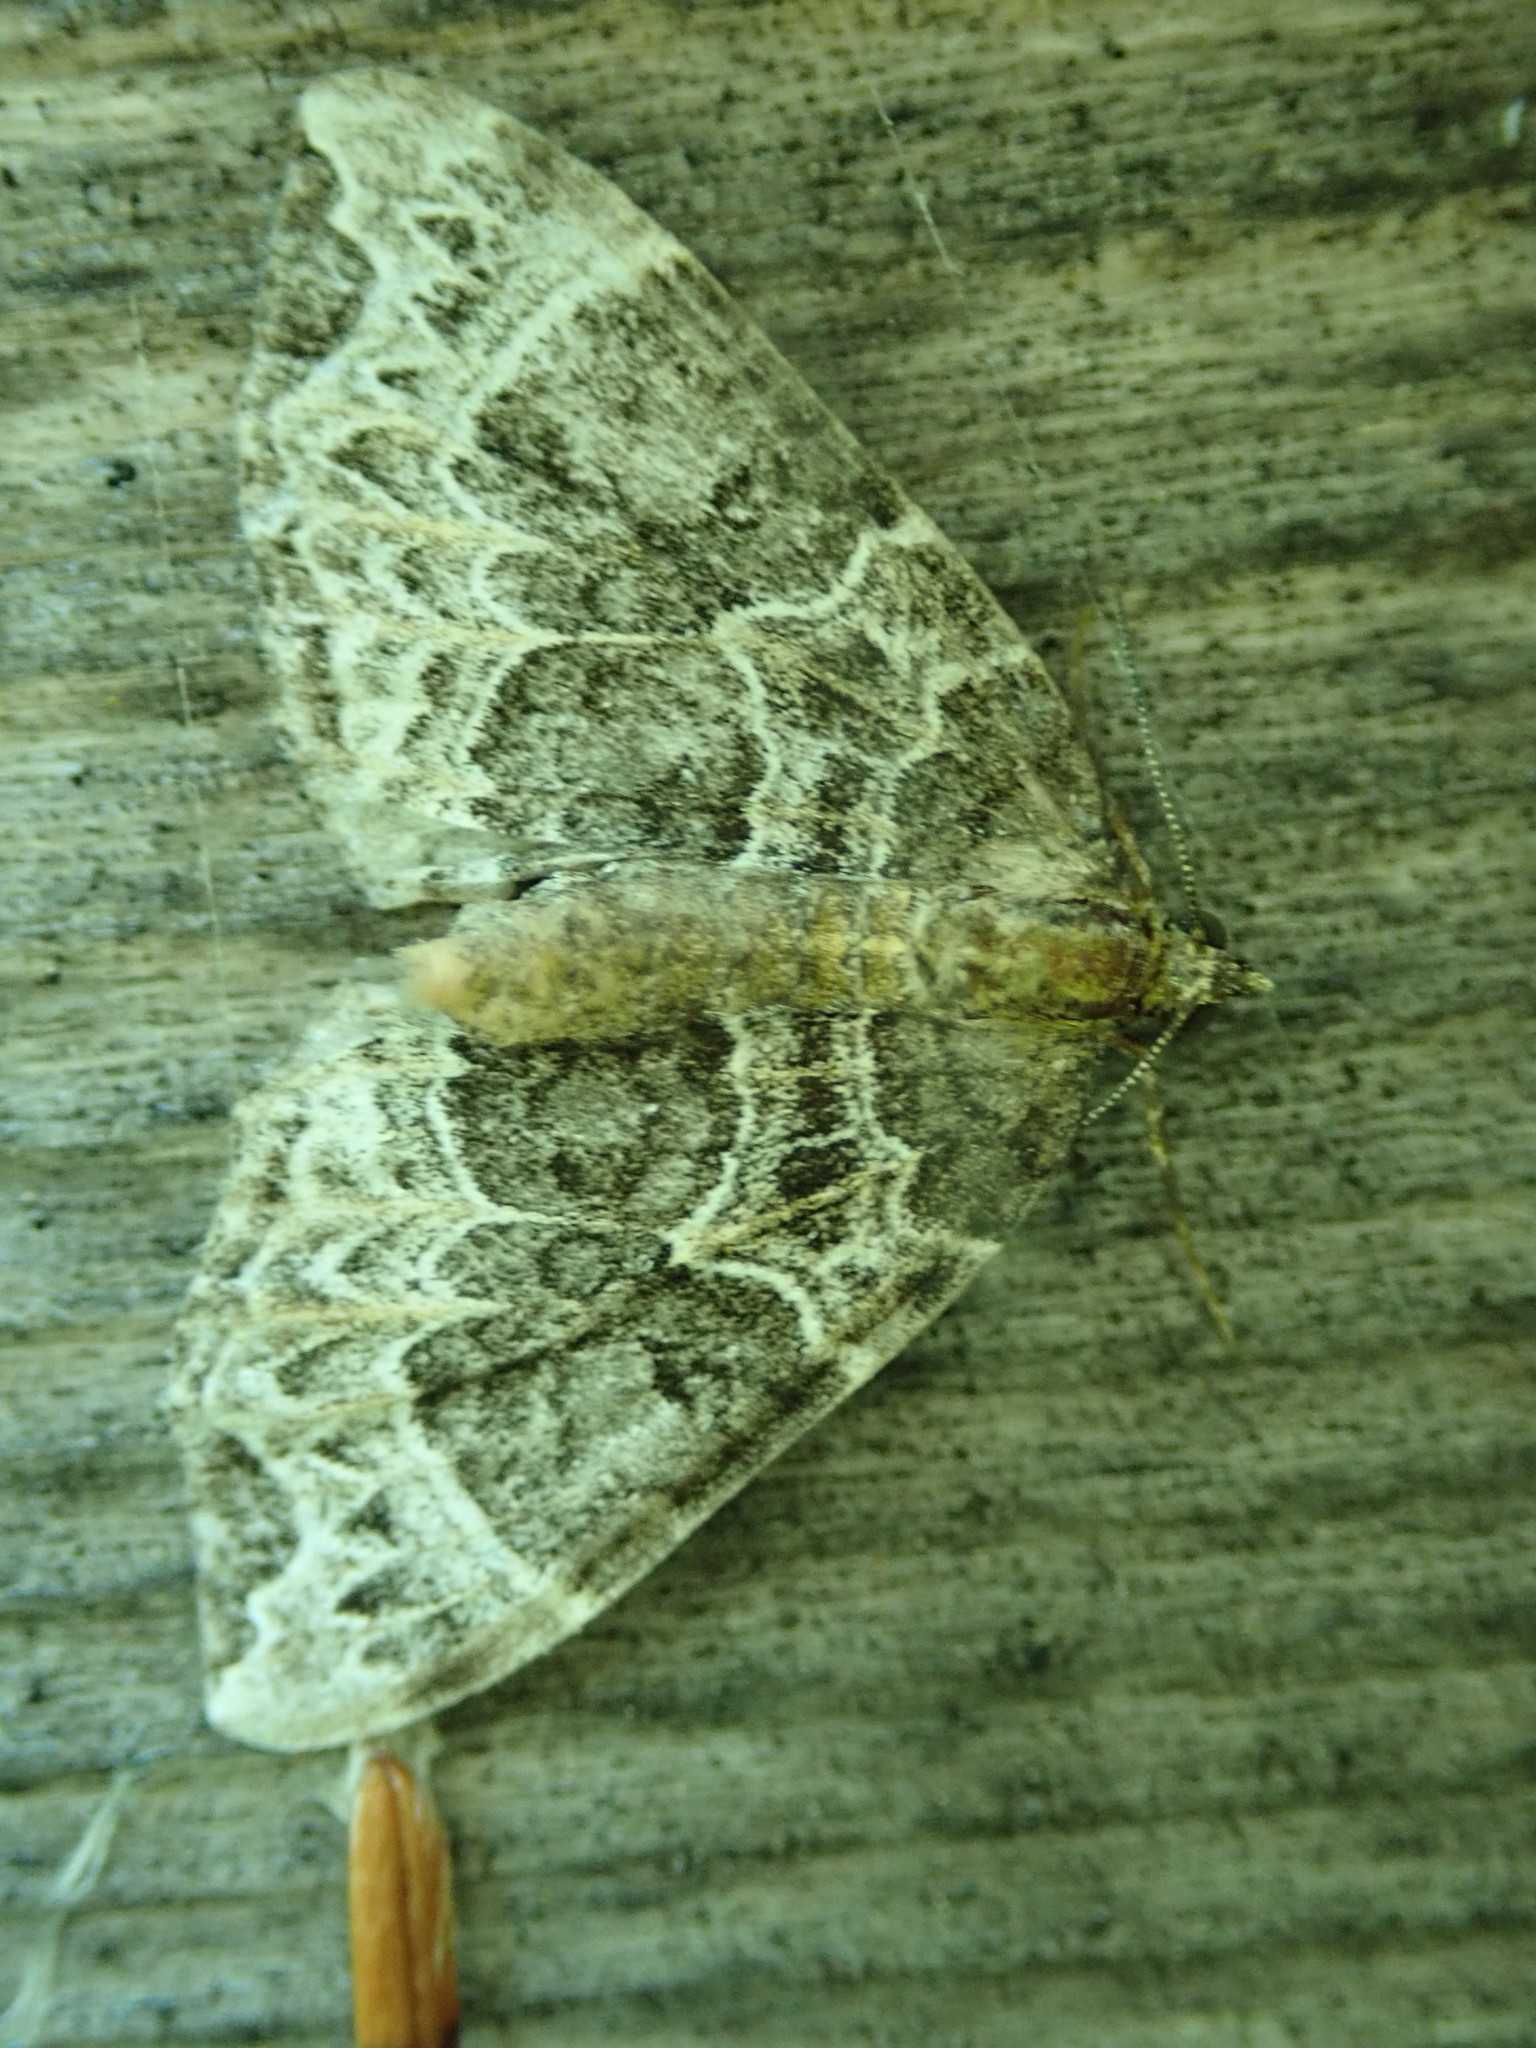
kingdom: Animalia
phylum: Arthropoda
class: Insecta
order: Lepidoptera
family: Geometridae
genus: Ecliptopera
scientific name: Ecliptopera silaceata
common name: Small phoenix
